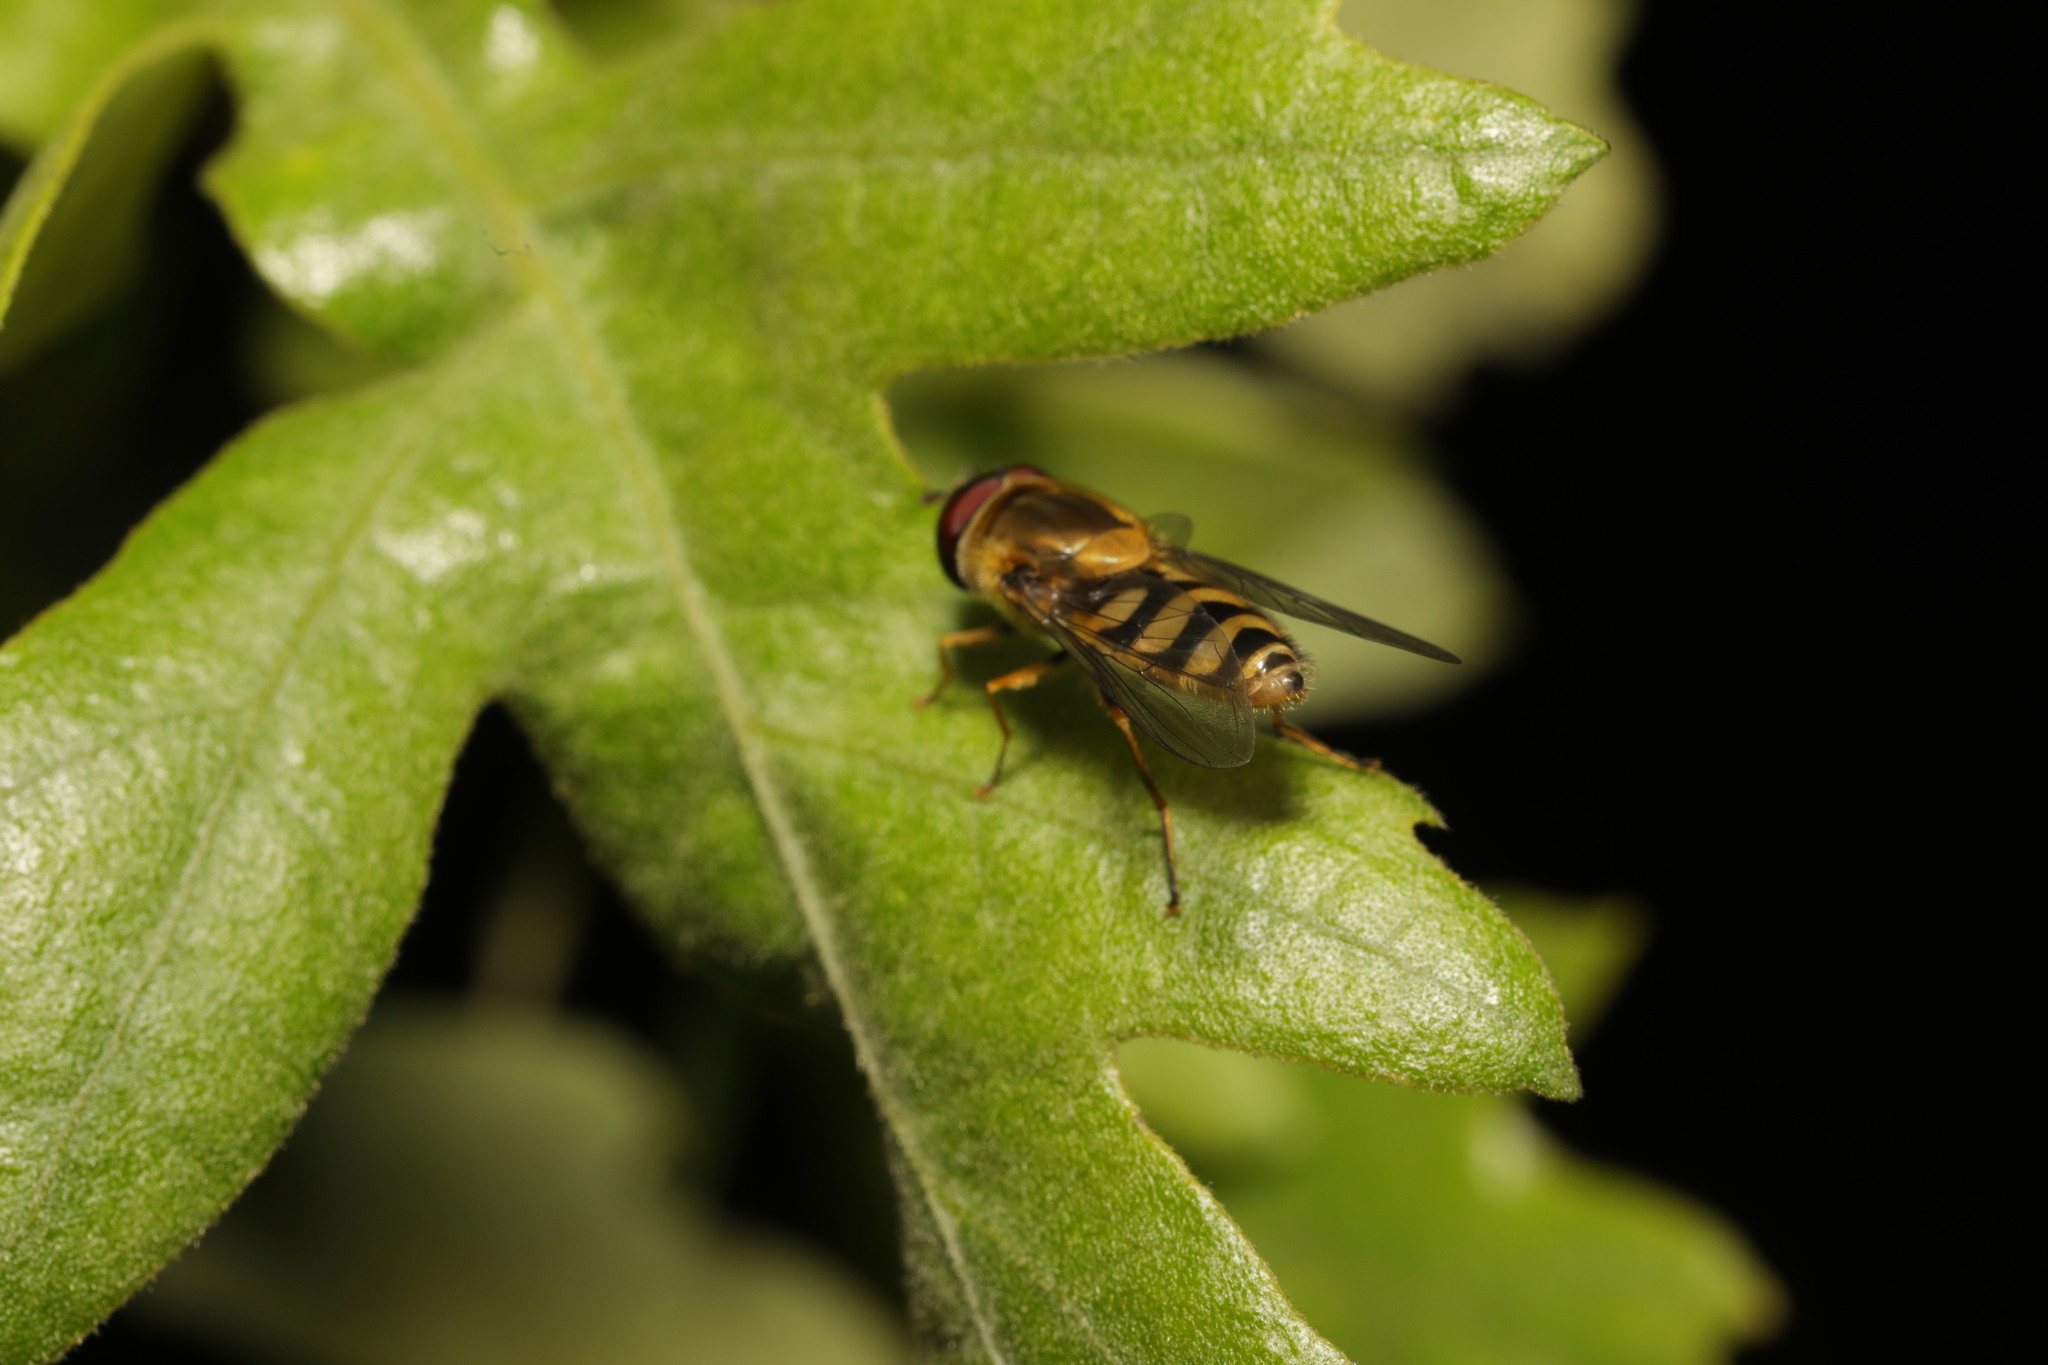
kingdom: Animalia
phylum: Arthropoda
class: Insecta
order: Diptera
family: Syrphidae
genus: Syrphus
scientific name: Syrphus ribesii
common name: Common flower fly
